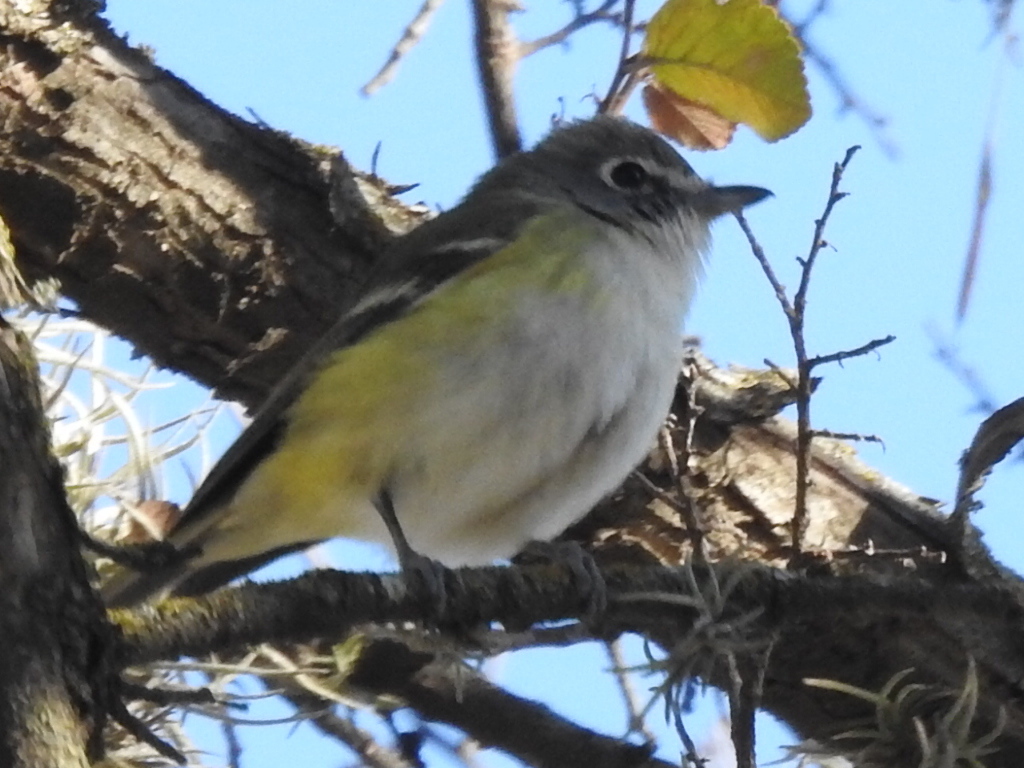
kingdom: Animalia
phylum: Chordata
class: Aves
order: Passeriformes
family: Vireonidae
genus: Vireo
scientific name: Vireo solitarius
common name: Blue-headed vireo
